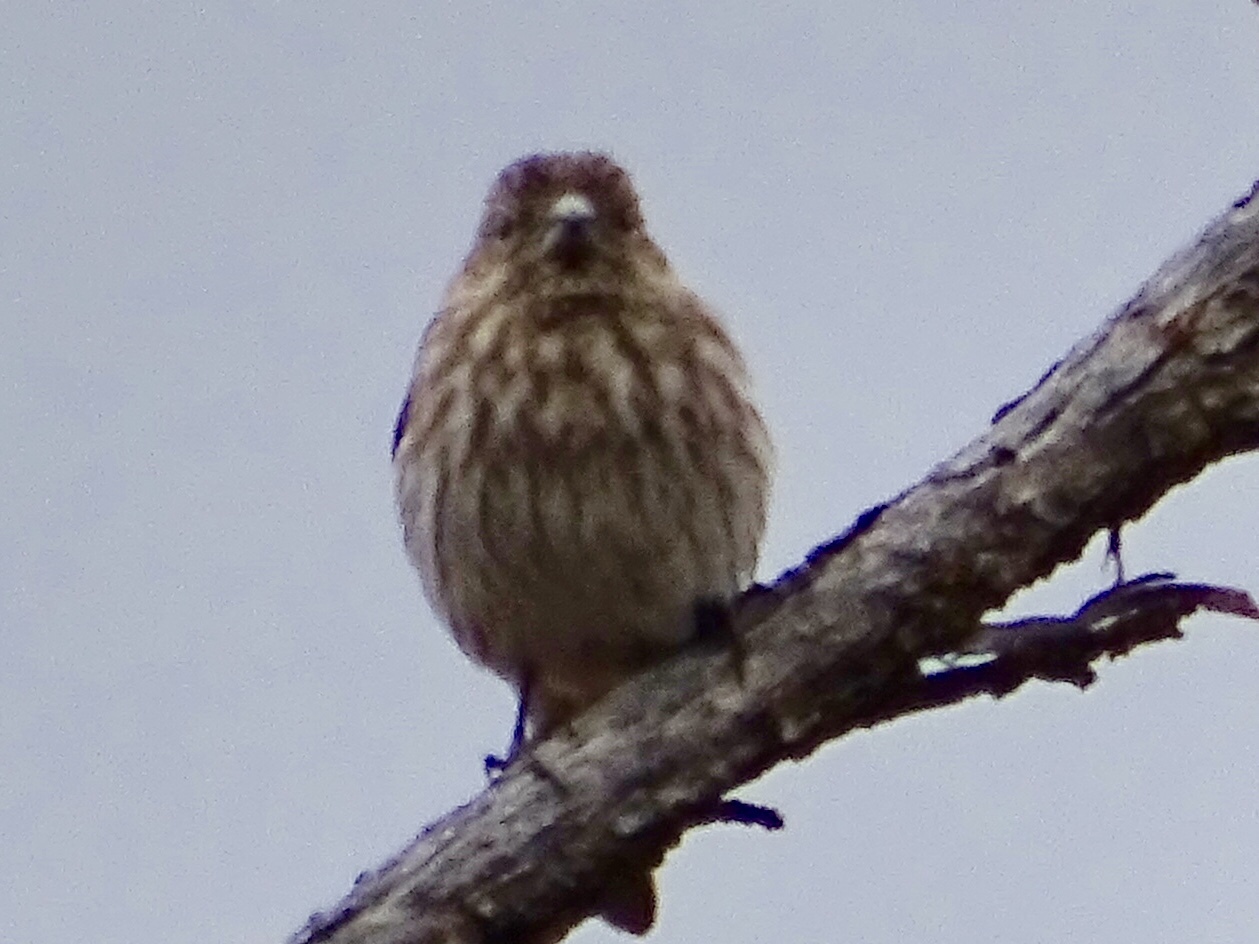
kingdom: Animalia
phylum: Chordata
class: Aves
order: Passeriformes
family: Fringillidae
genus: Haemorhous
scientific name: Haemorhous mexicanus
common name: House finch
